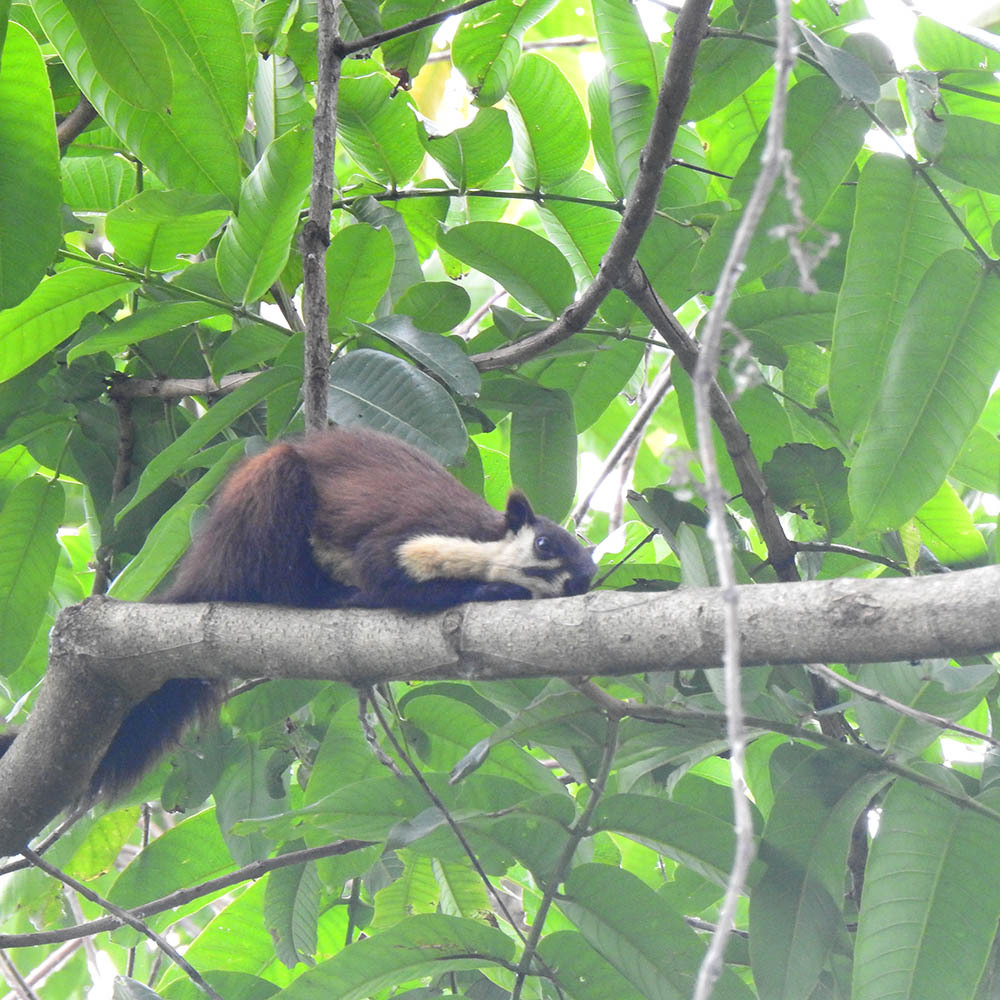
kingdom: Animalia
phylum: Chordata
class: Mammalia
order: Rodentia
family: Sciuridae
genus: Ratufa
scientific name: Ratufa bicolor
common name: Black giant squirrel
